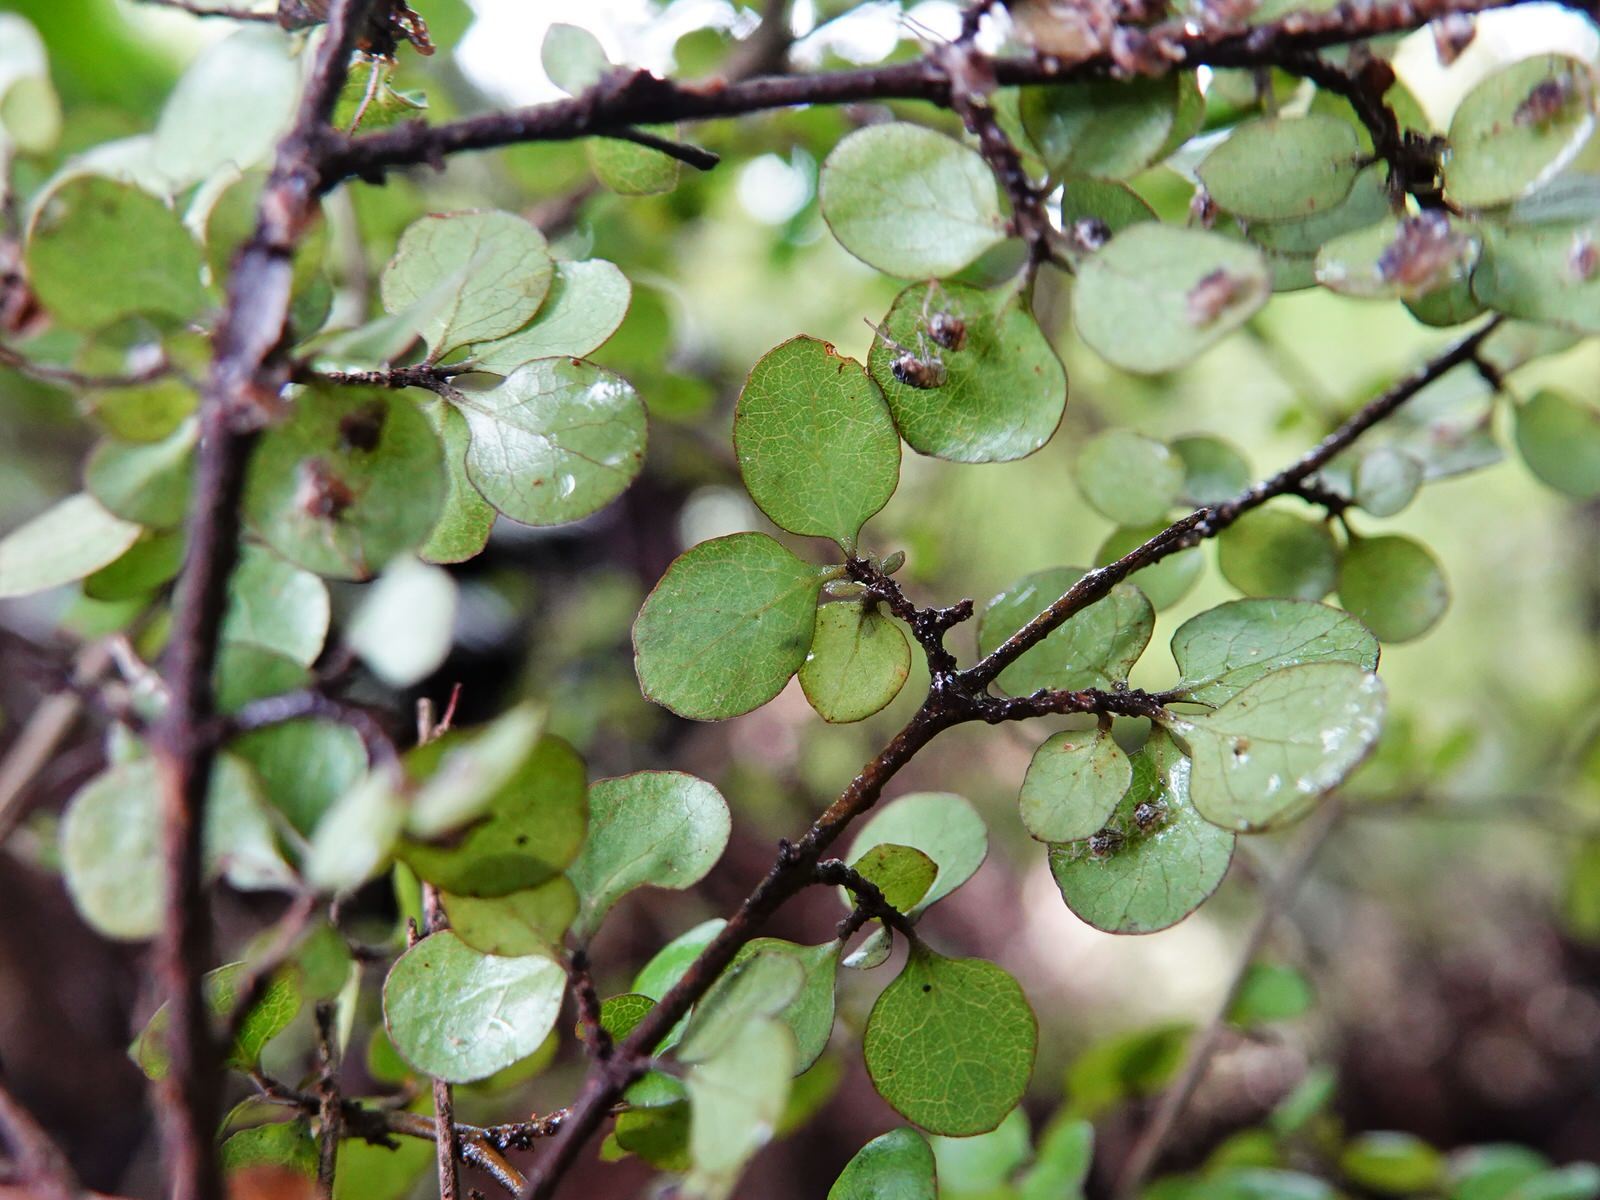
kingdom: Plantae
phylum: Tracheophyta
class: Magnoliopsida
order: Gentianales
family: Rubiaceae
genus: Coprosma
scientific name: Coprosma rhamnoides
